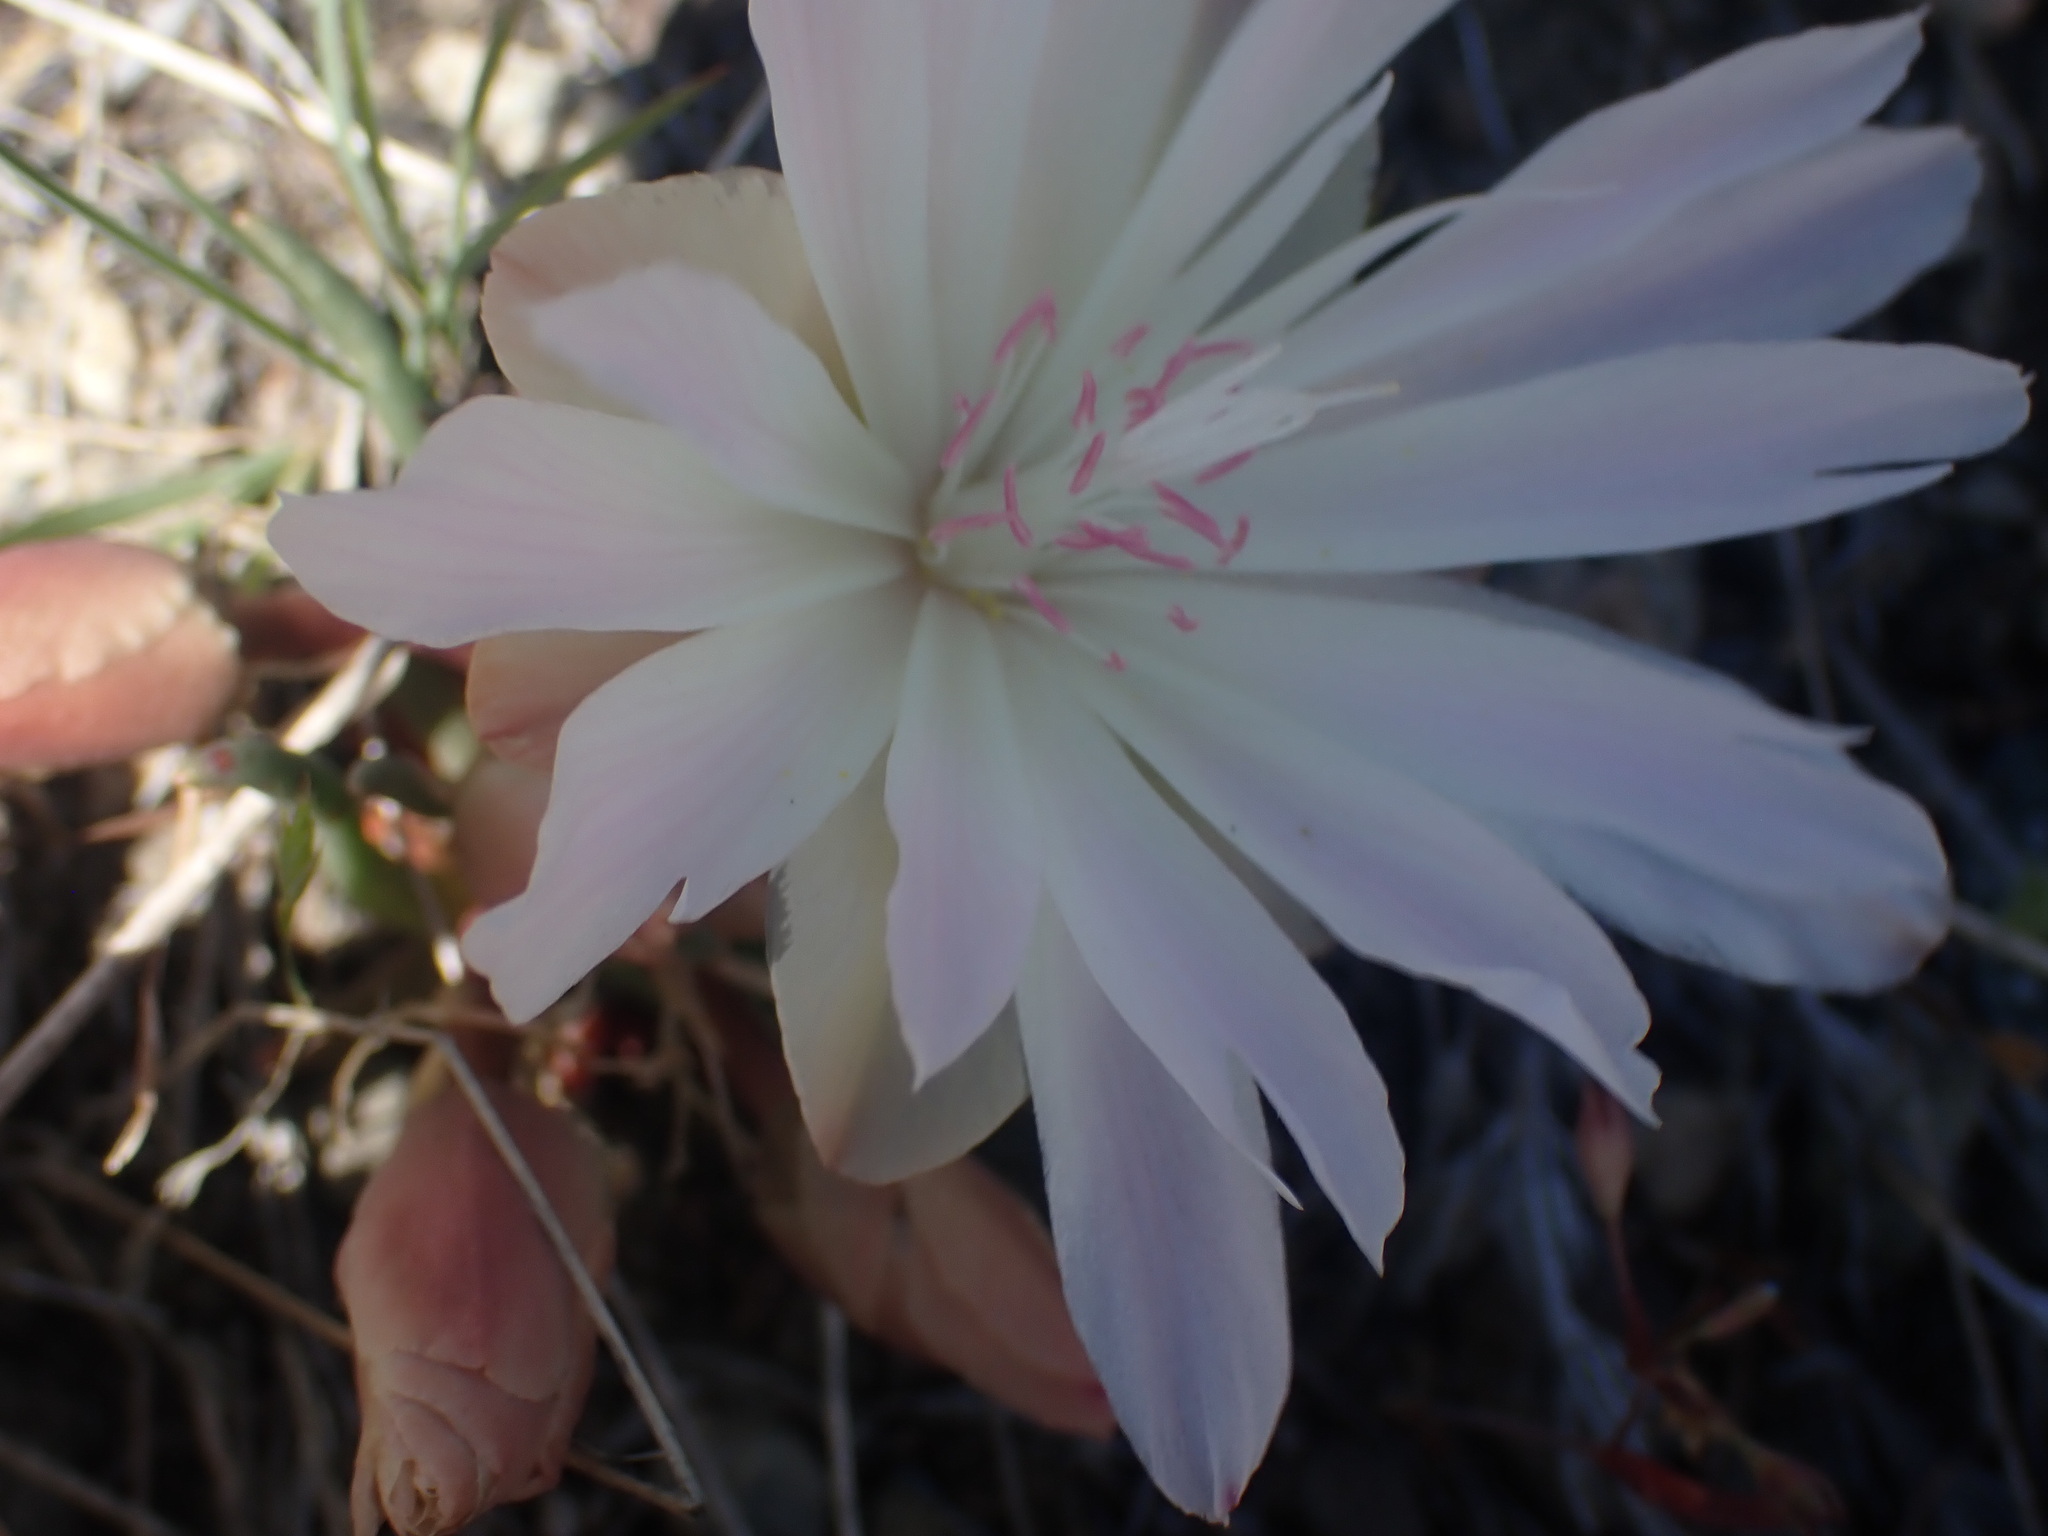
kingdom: Plantae
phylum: Tracheophyta
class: Magnoliopsida
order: Caryophyllales
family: Montiaceae
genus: Lewisia
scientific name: Lewisia rediviva
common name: Bitter-root
